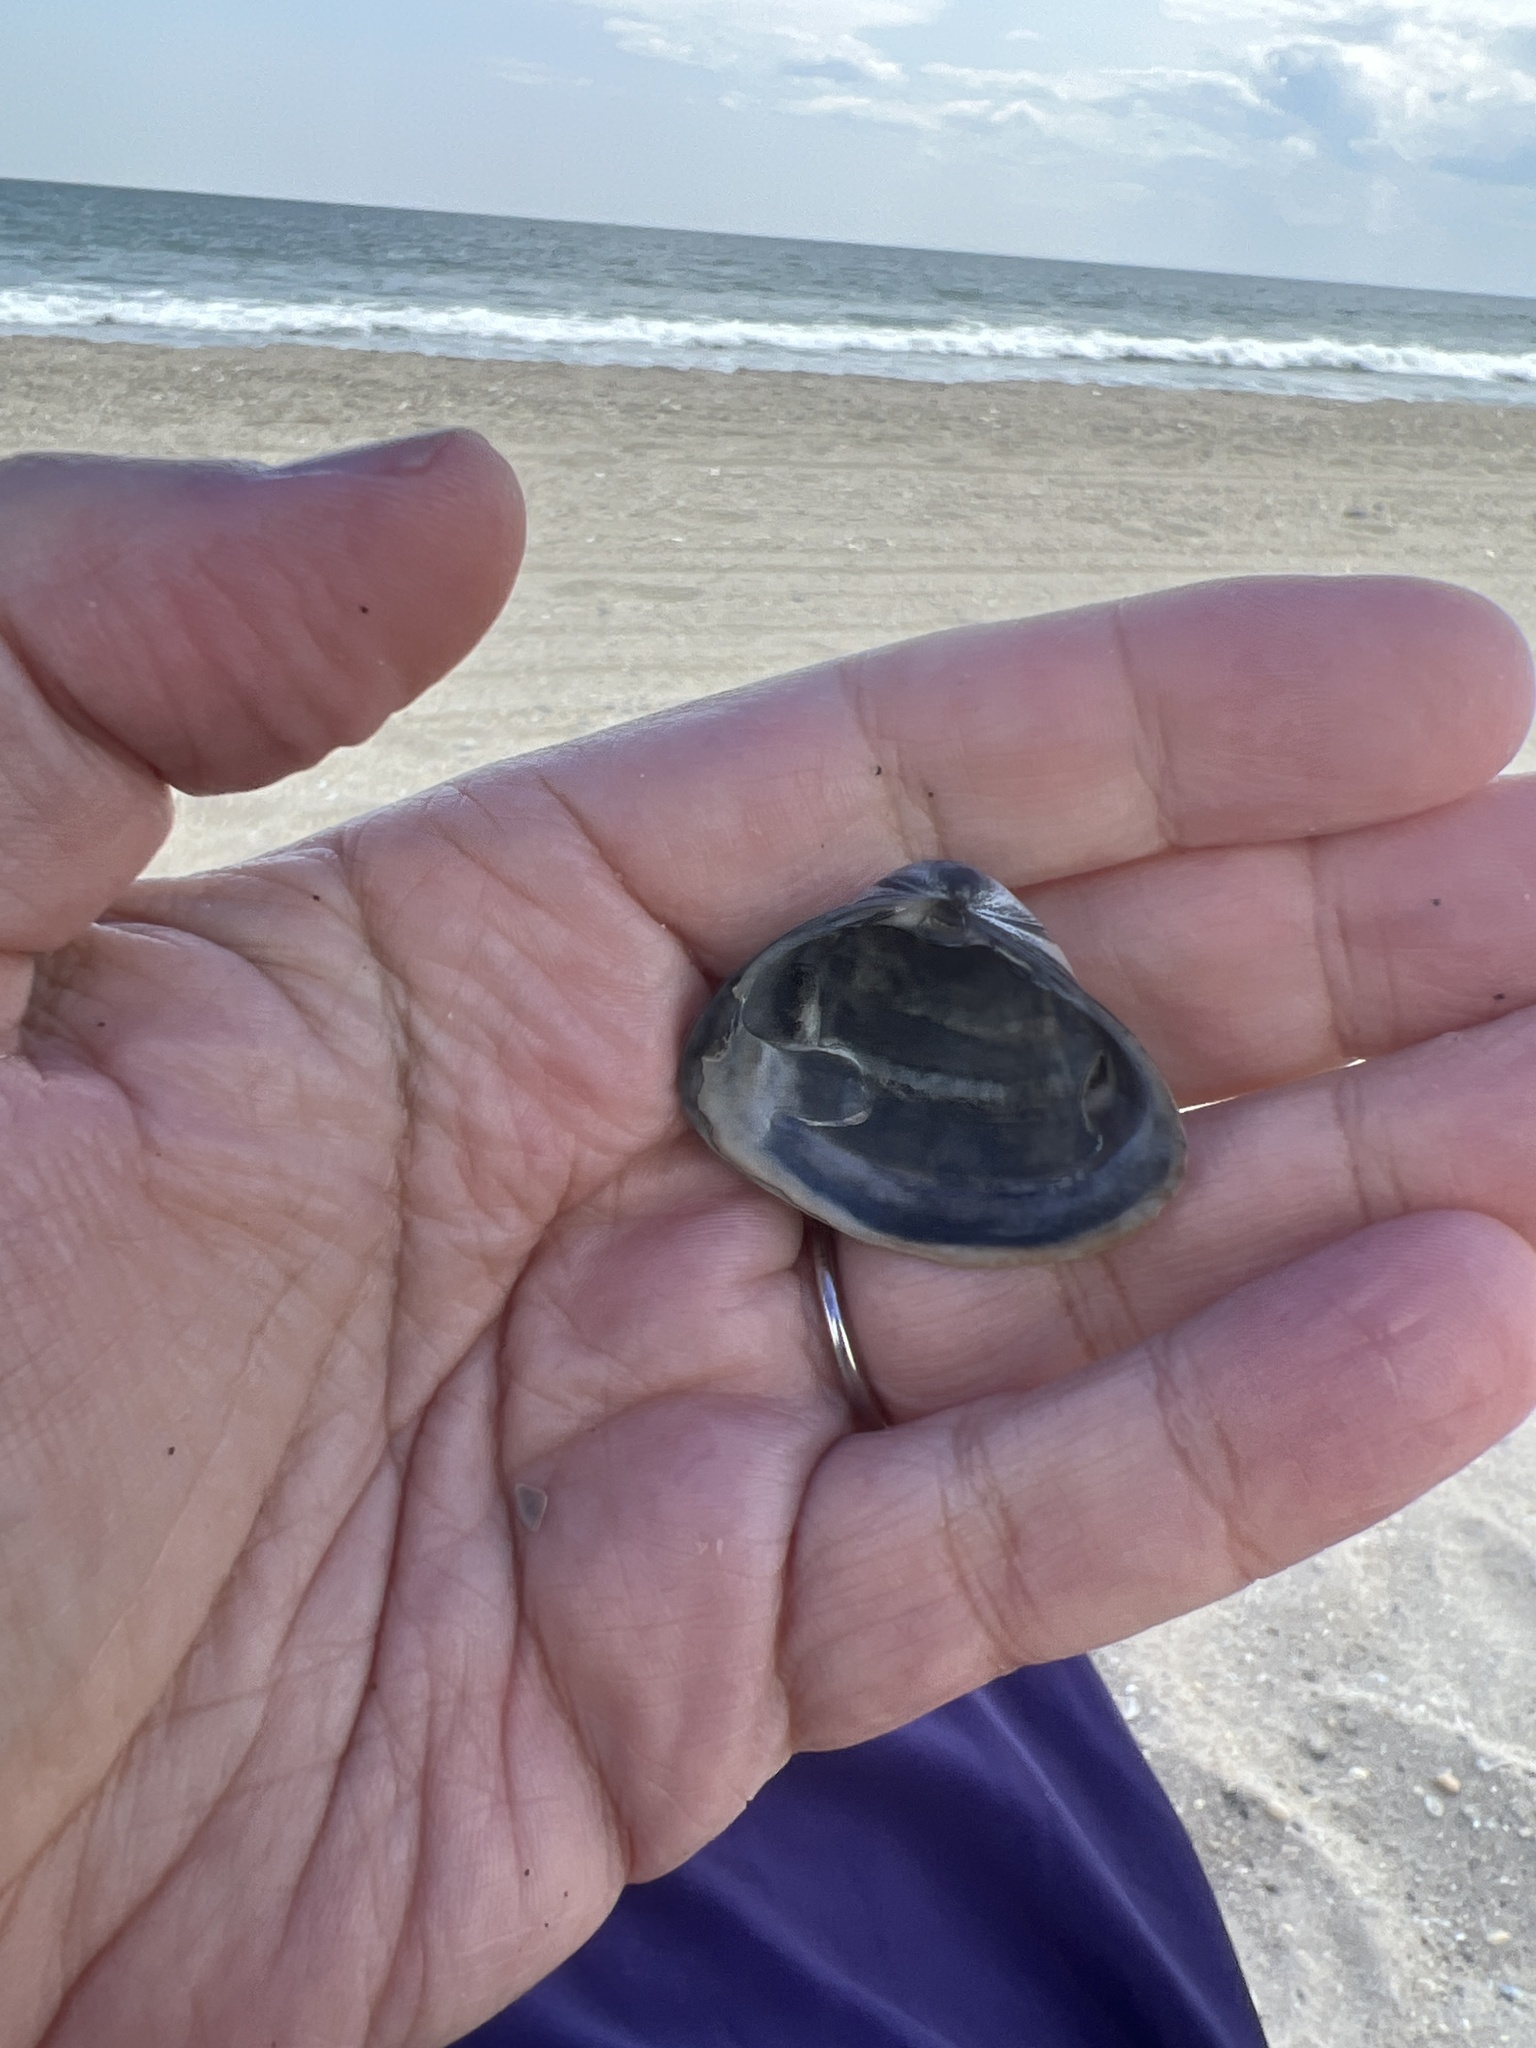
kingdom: Animalia
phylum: Mollusca
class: Bivalvia
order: Venerida
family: Mactridae
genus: Spisula
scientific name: Spisula solidissima
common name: Atlantic surf clam
